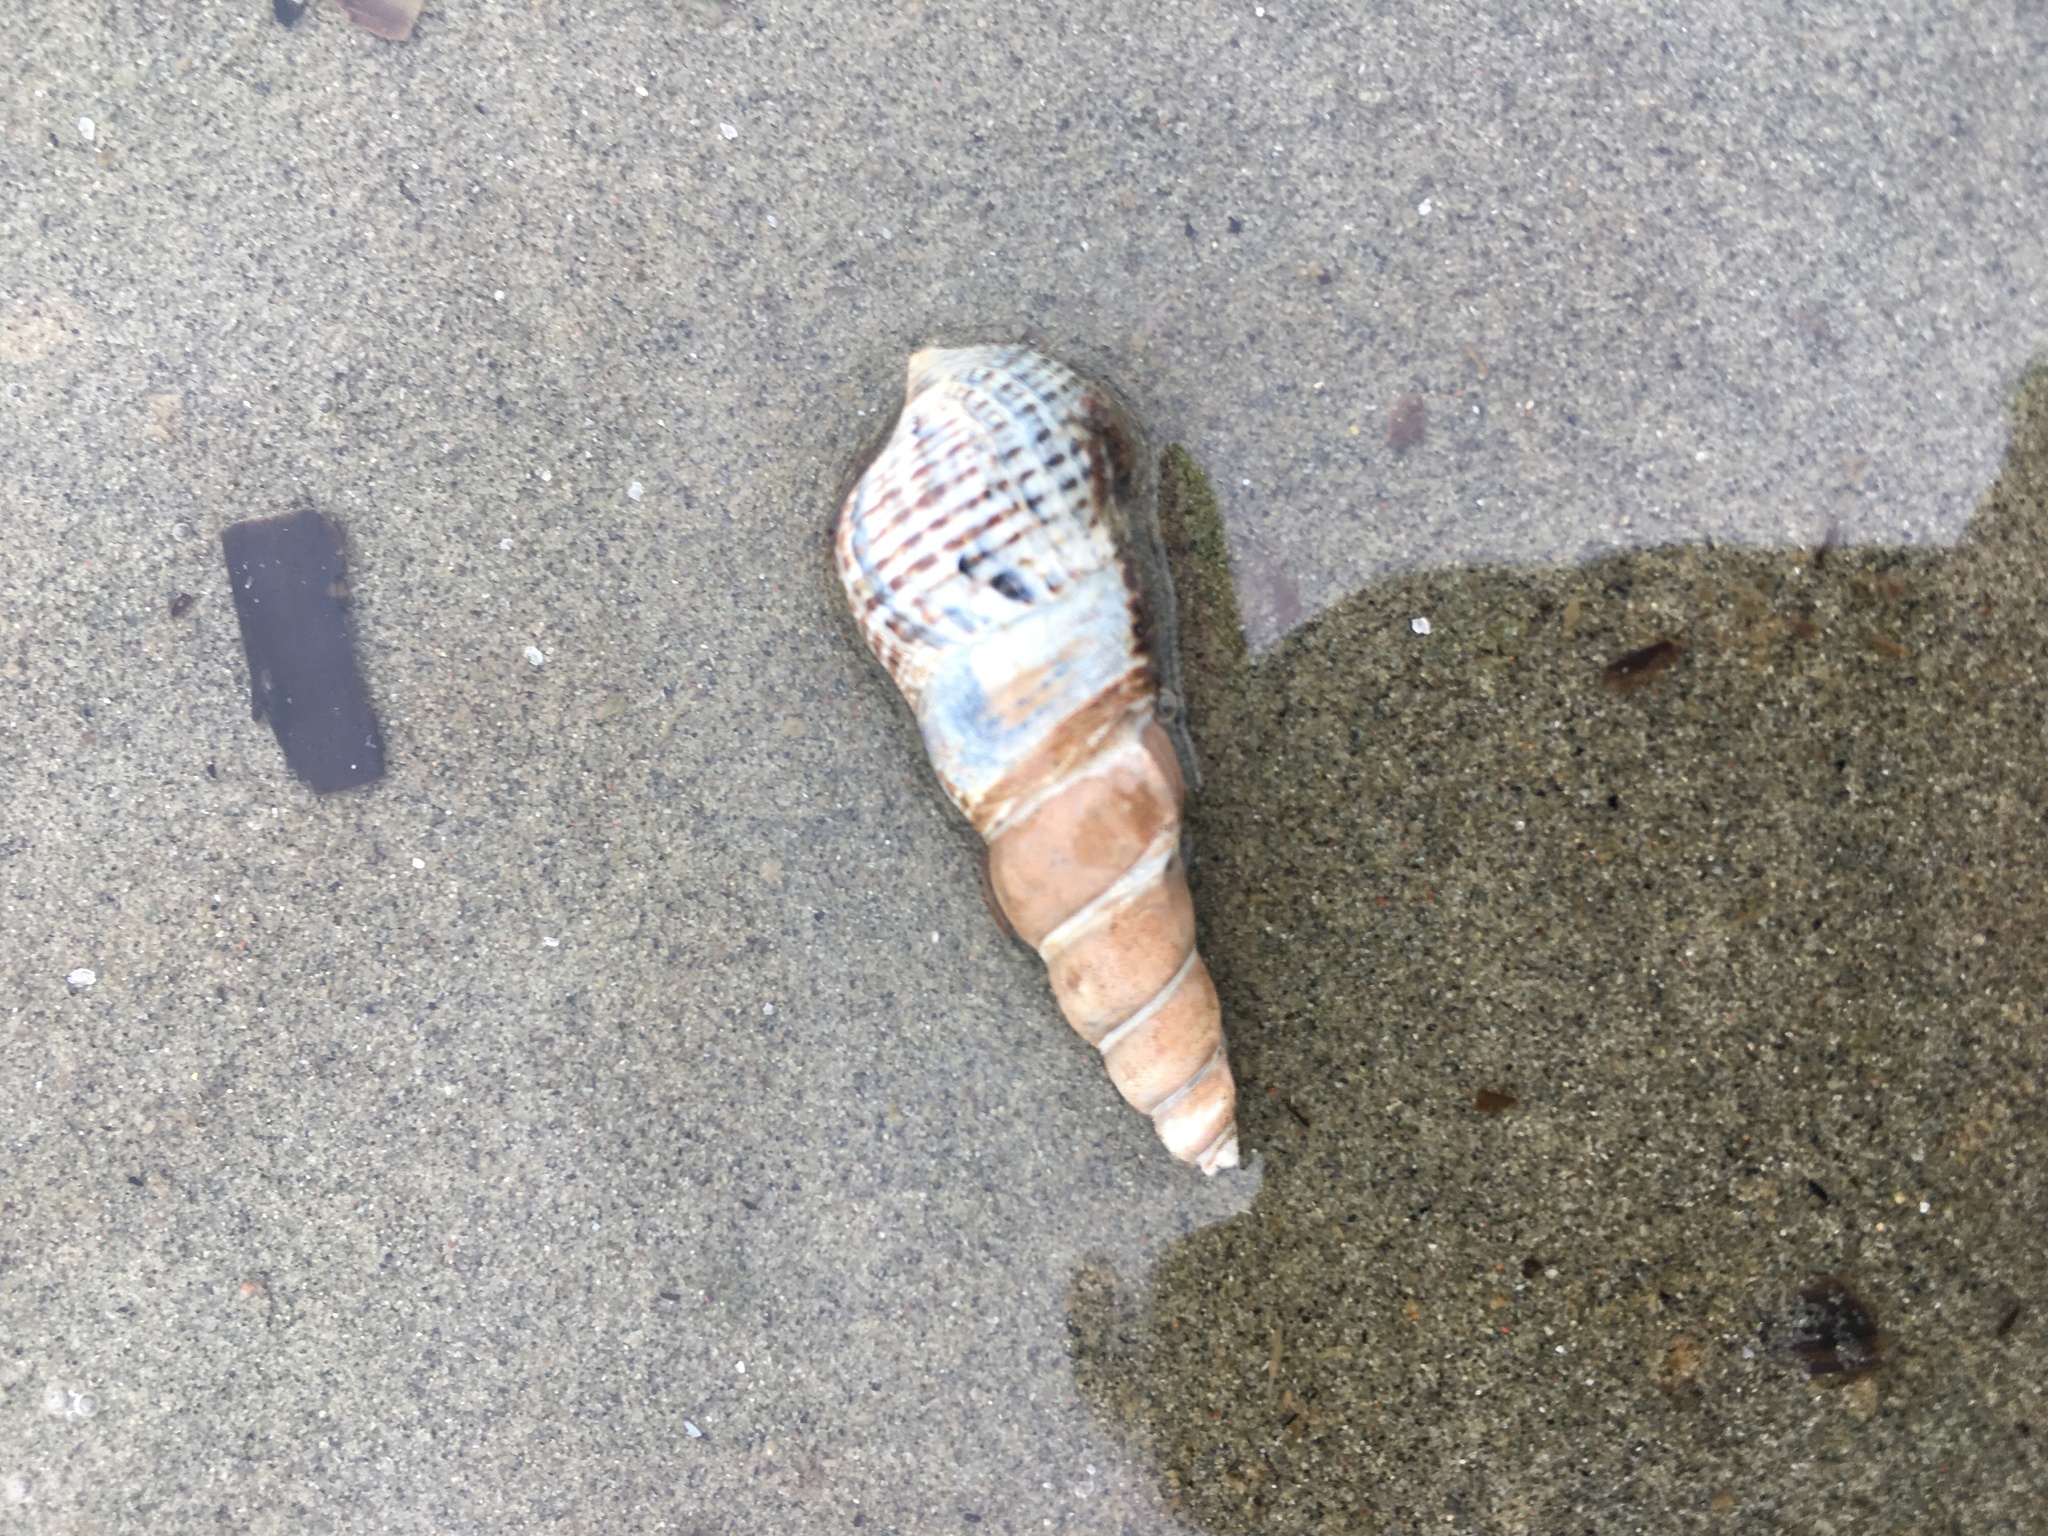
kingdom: Animalia
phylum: Mollusca
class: Gastropoda
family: Batillariidae
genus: Batillaria
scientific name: Batillaria attramentaria
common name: Japanese false cerith
